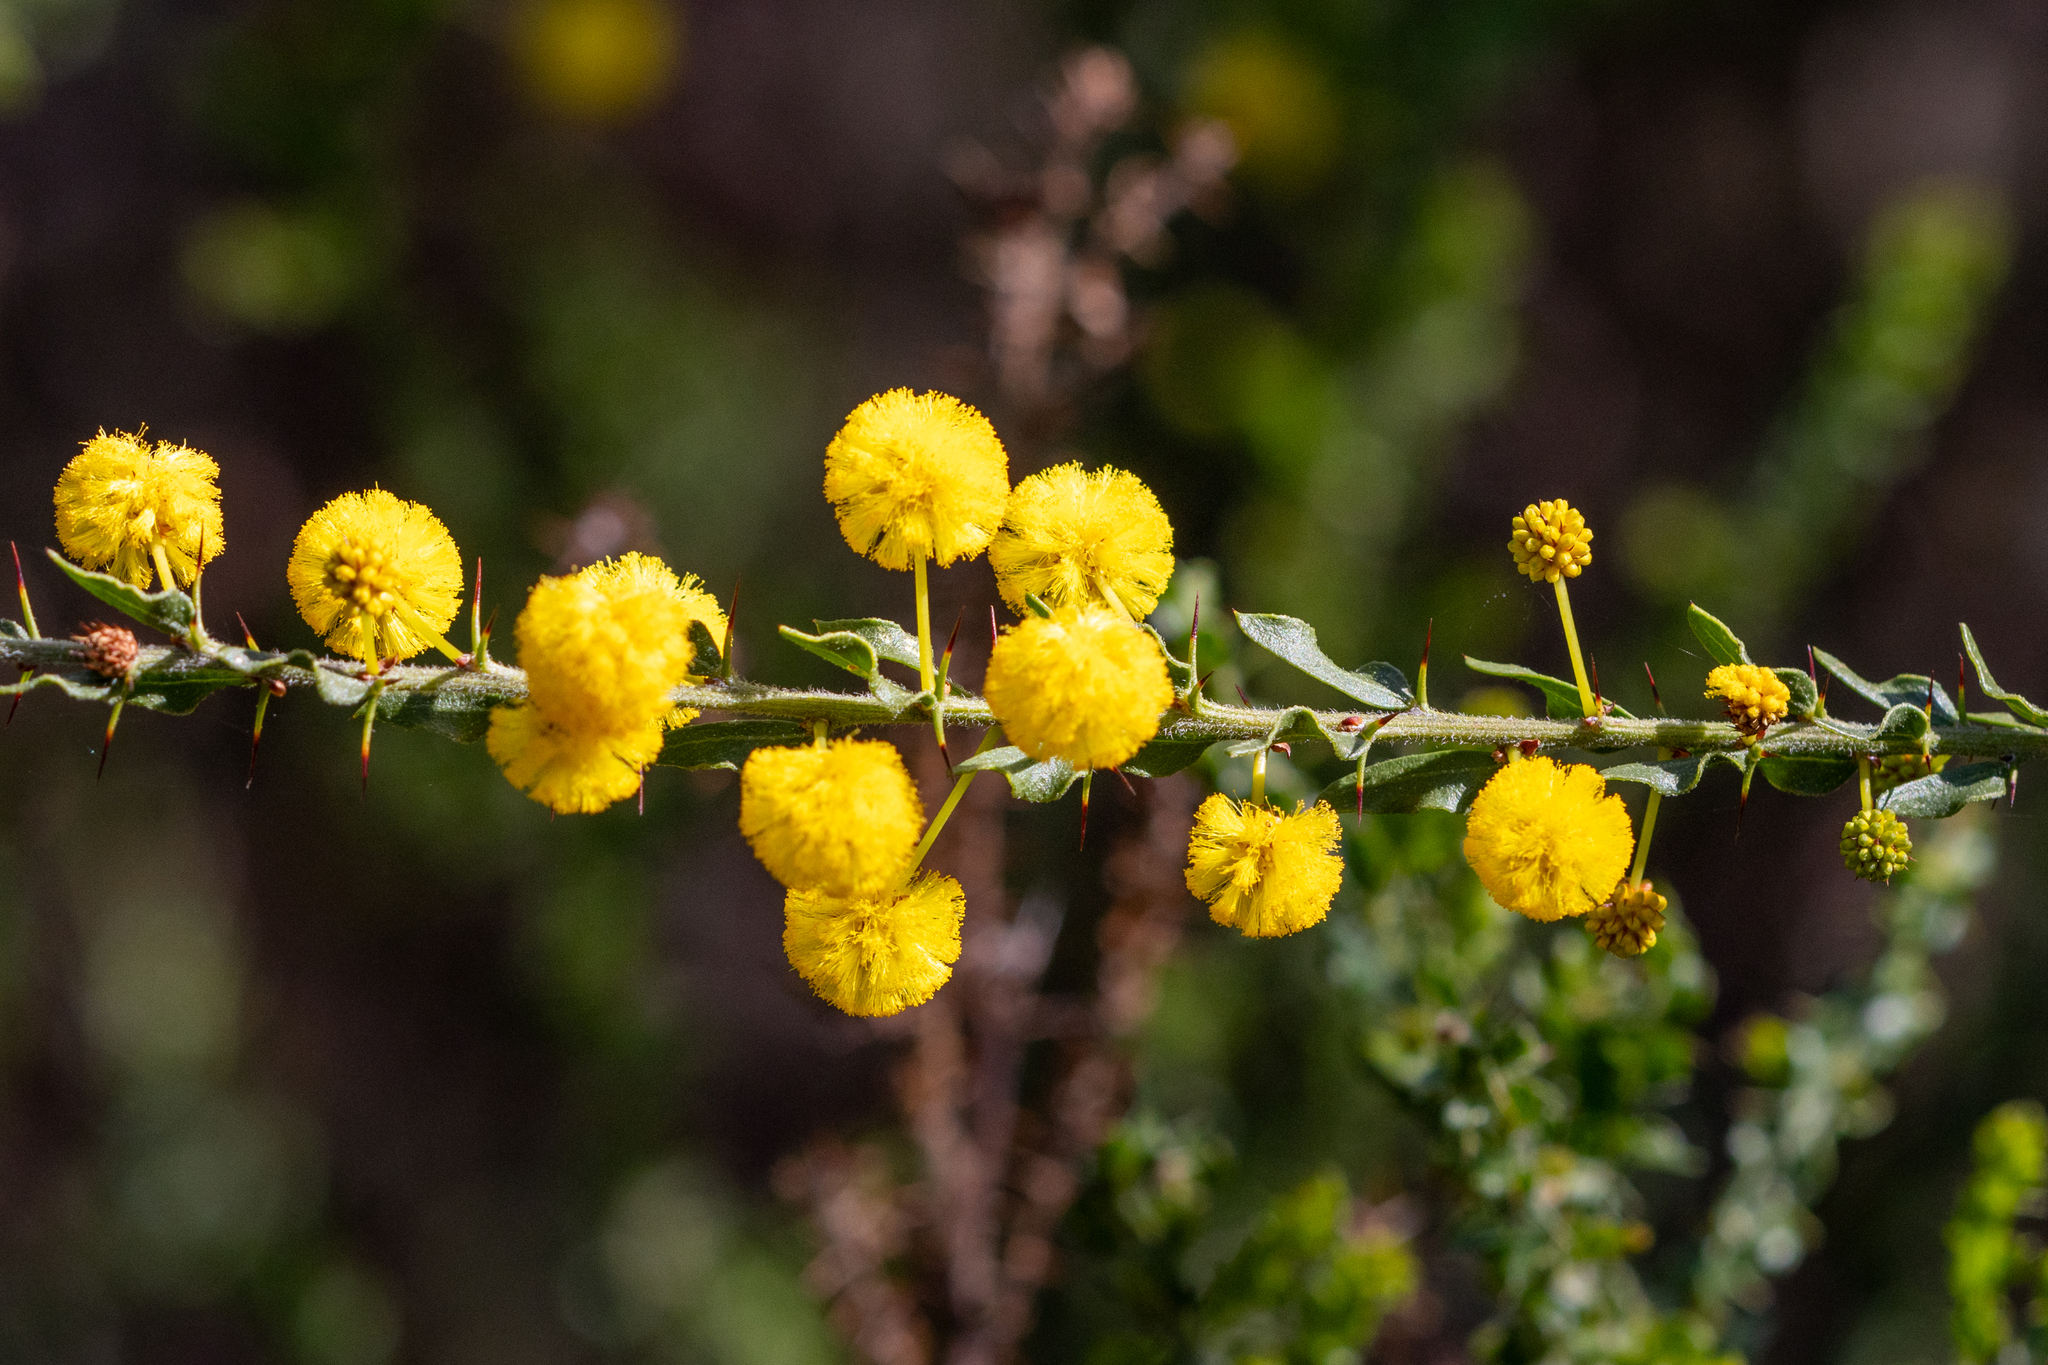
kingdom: Plantae
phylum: Tracheophyta
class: Magnoliopsida
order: Fabales
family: Fabaceae
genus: Acacia
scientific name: Acacia paradoxa
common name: Paradox acacia
